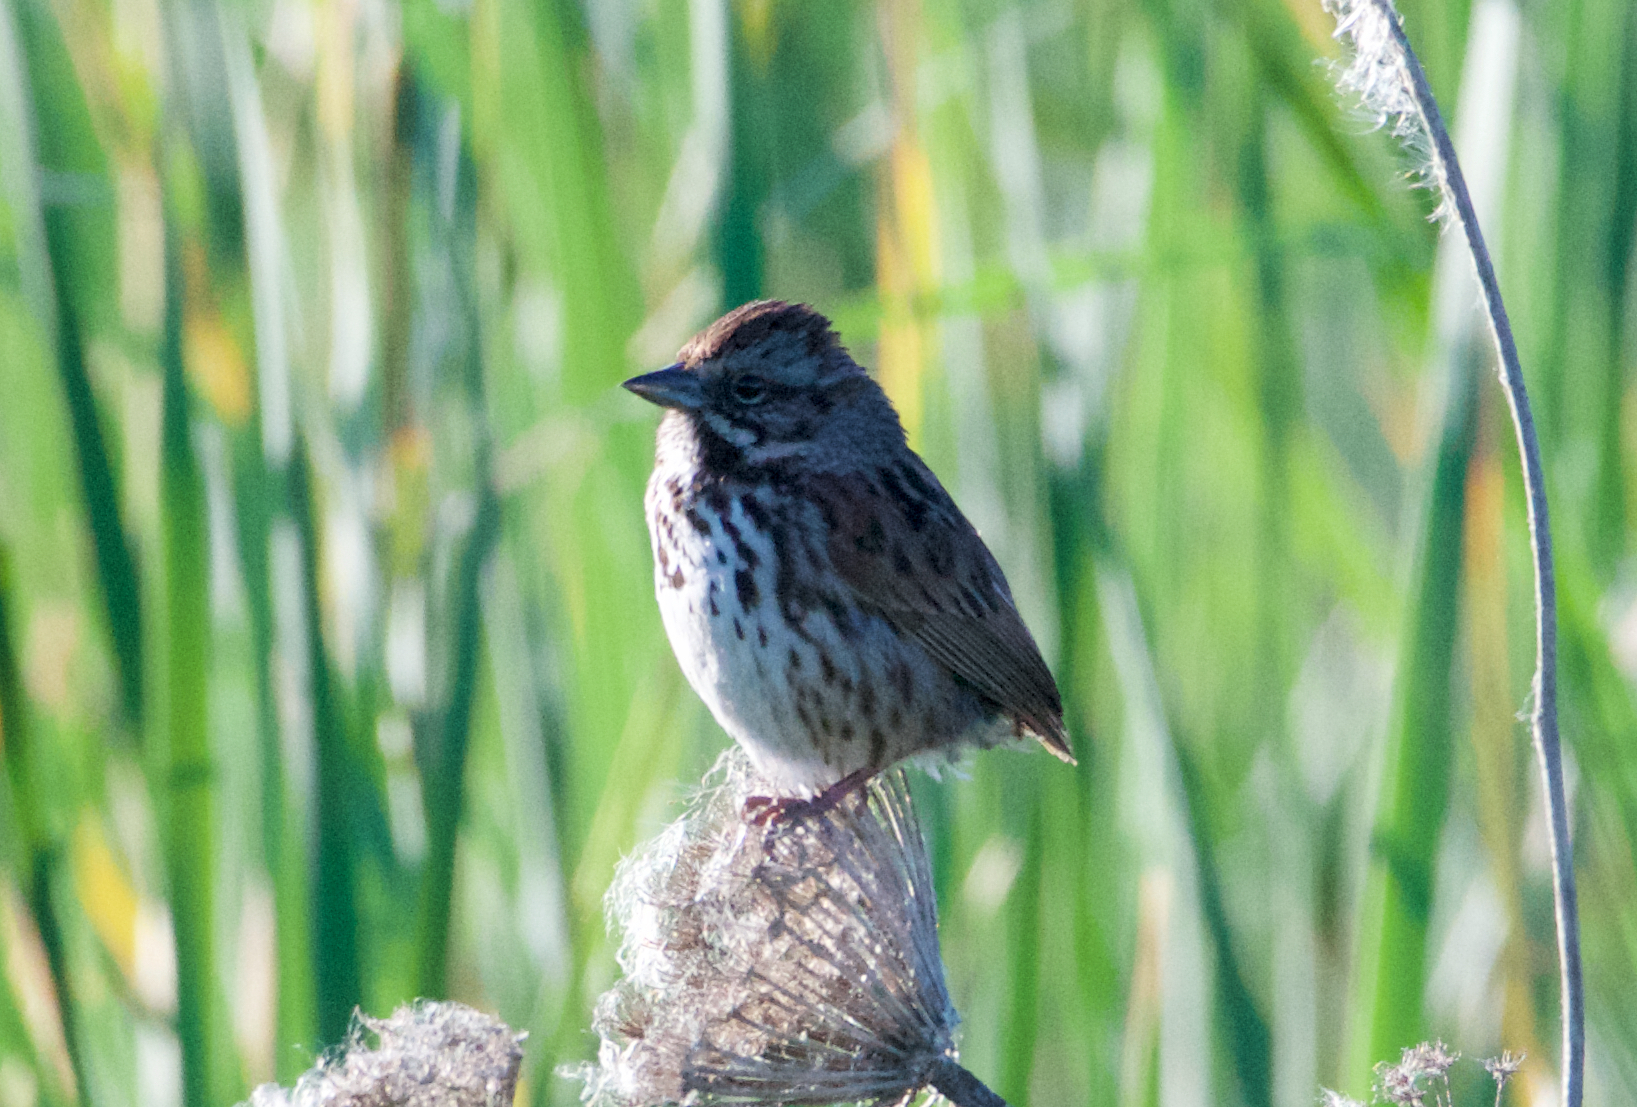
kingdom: Animalia
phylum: Chordata
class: Aves
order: Passeriformes
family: Passerellidae
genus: Melospiza
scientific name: Melospiza melodia
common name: Song sparrow
